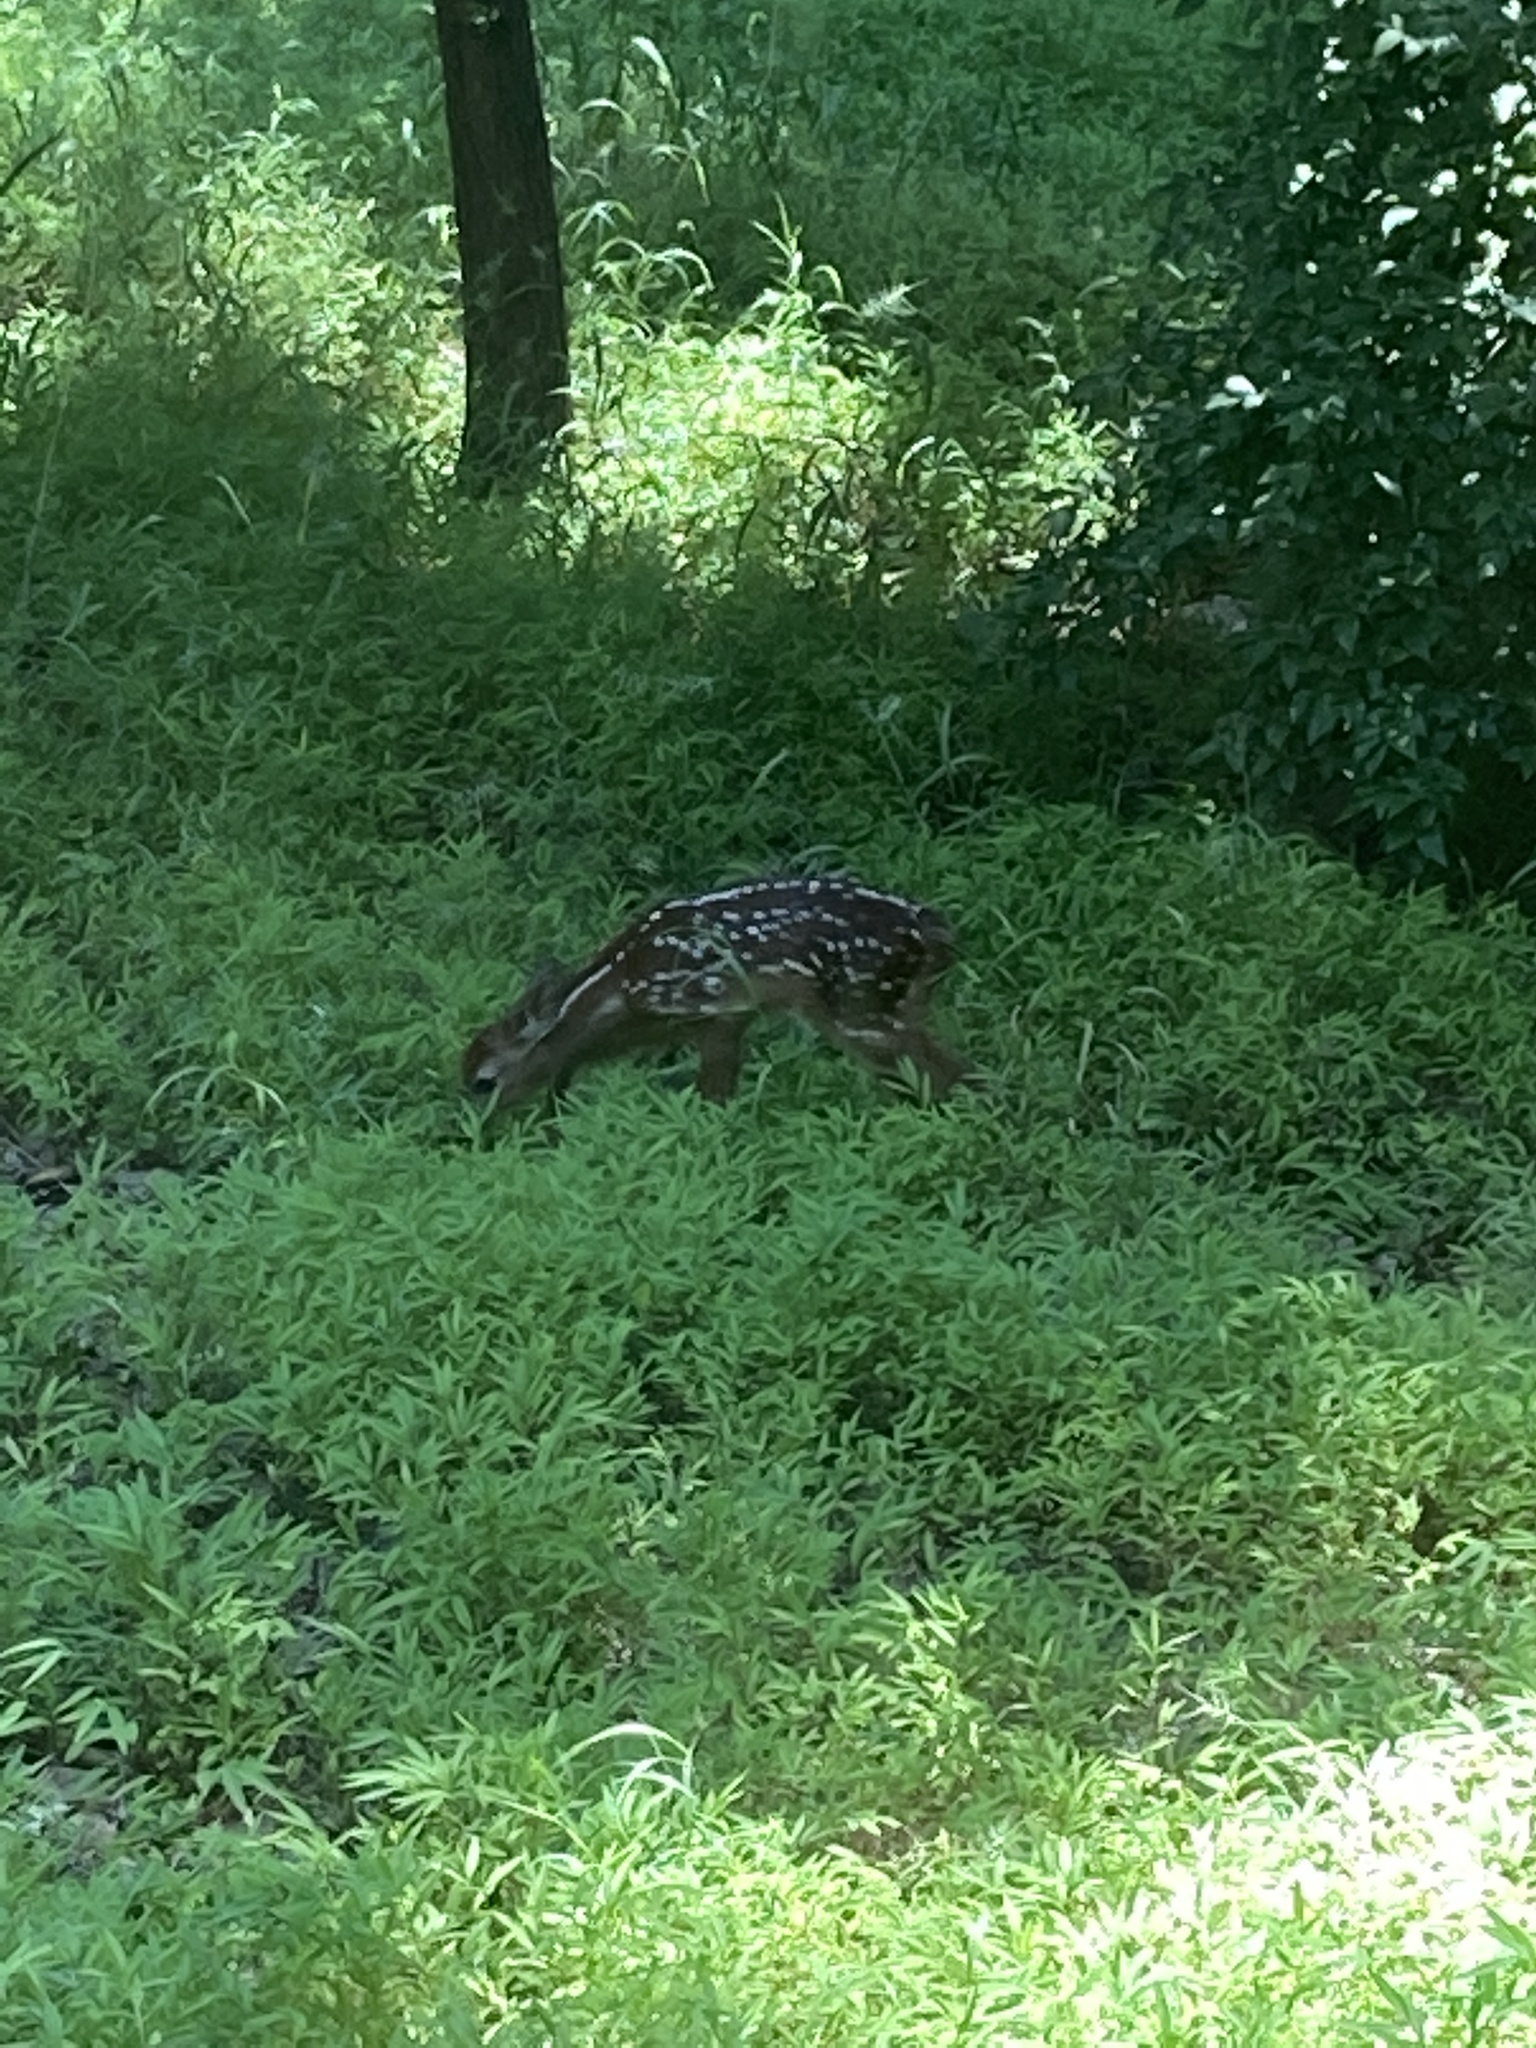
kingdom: Animalia
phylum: Chordata
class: Mammalia
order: Artiodactyla
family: Cervidae
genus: Odocoileus
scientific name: Odocoileus virginianus
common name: White-tailed deer
